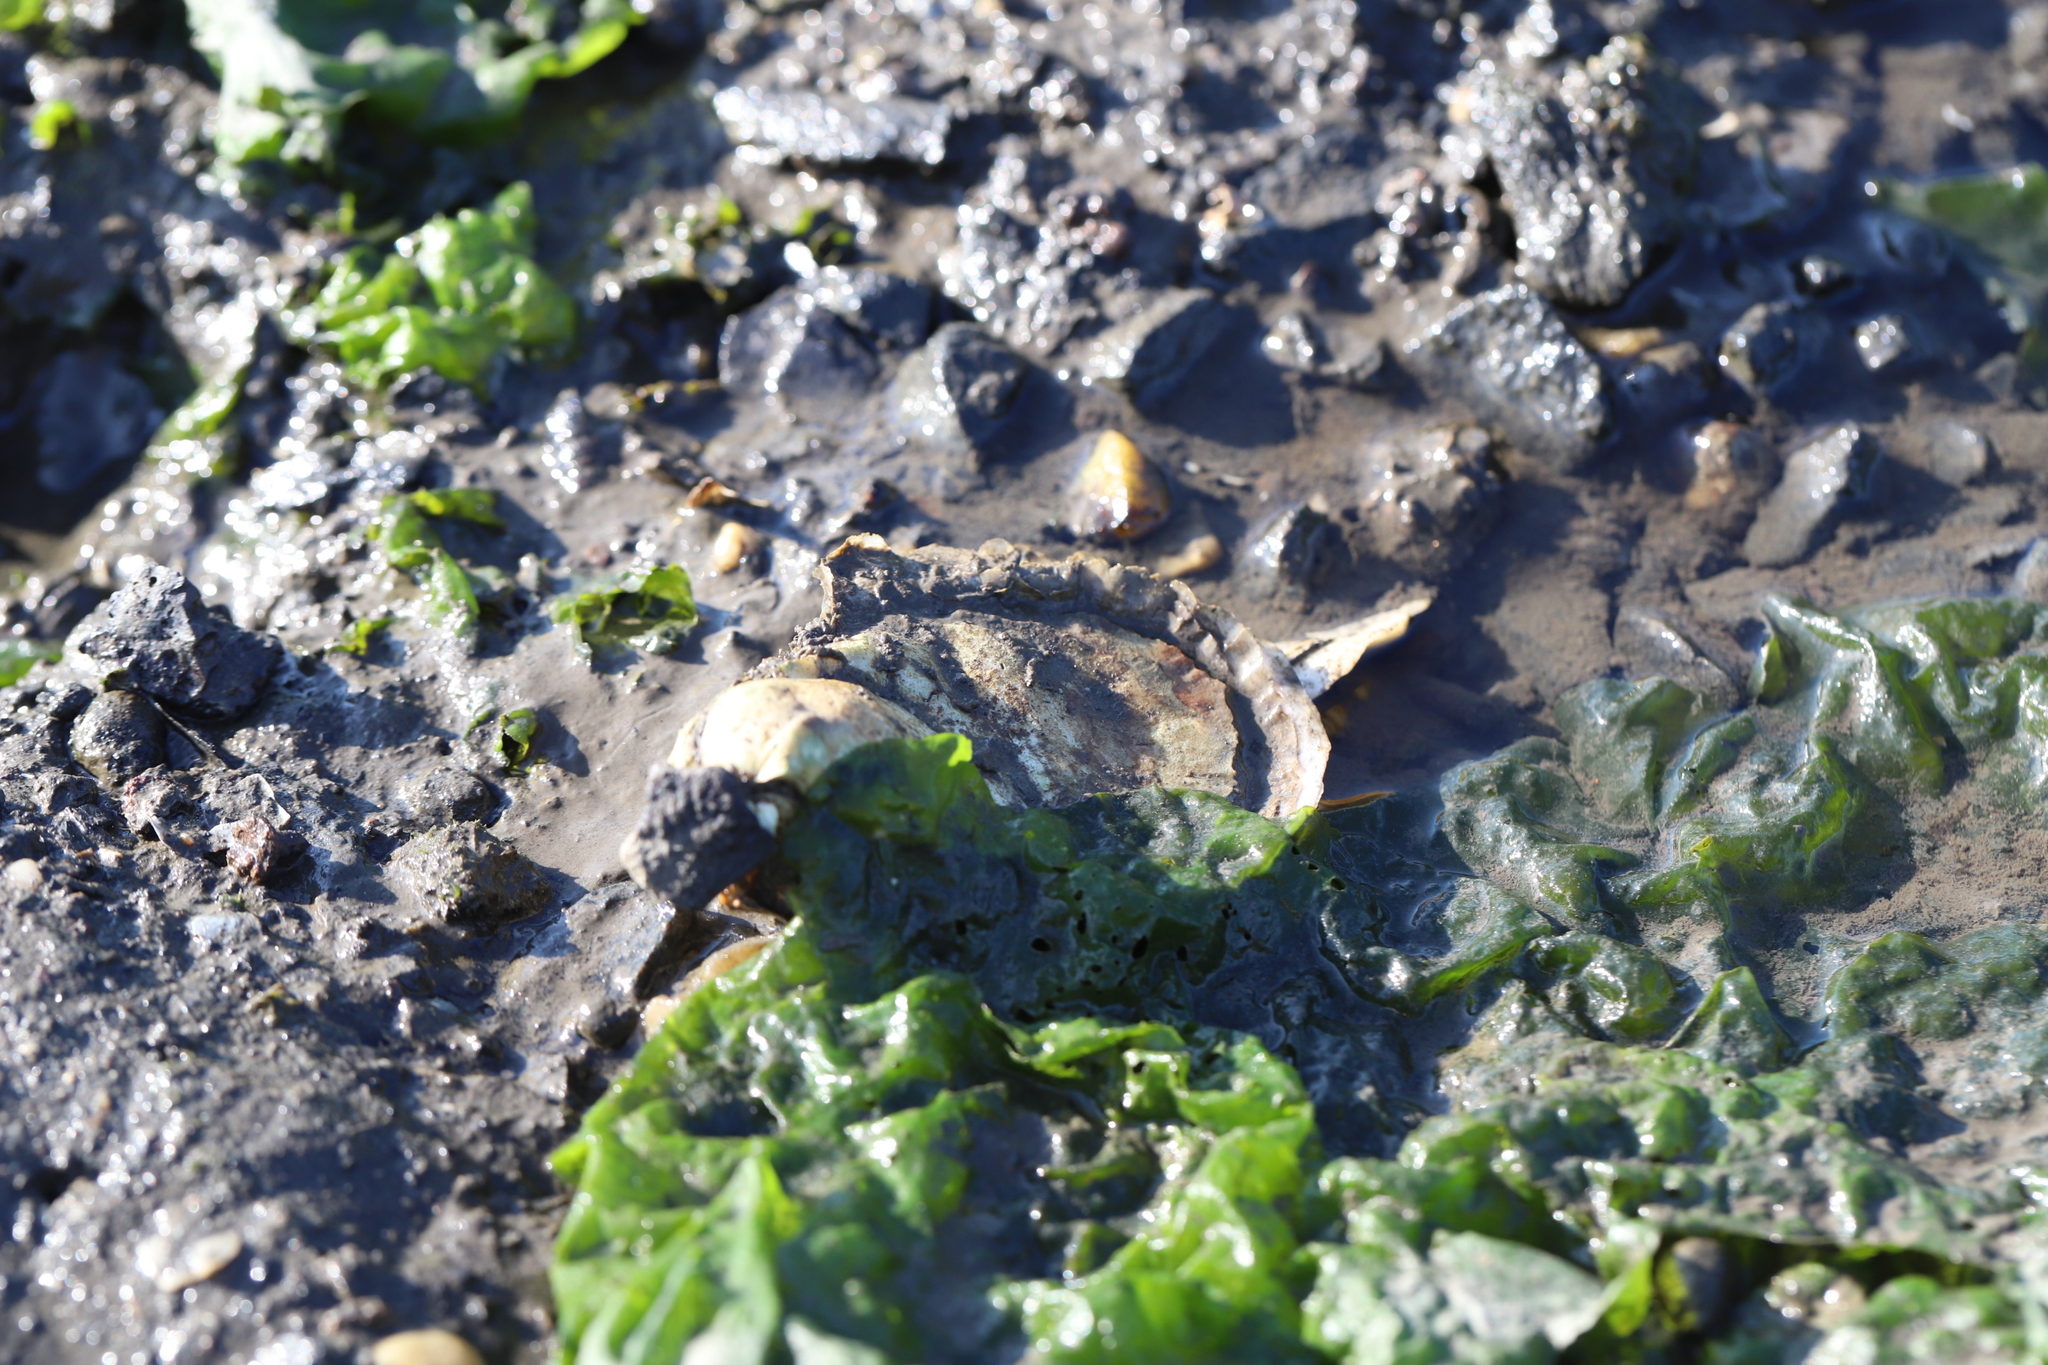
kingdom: Animalia
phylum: Mollusca
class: Bivalvia
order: Ostreida
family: Ostreidae
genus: Crassostrea
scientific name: Crassostrea virginica
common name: American oyster
